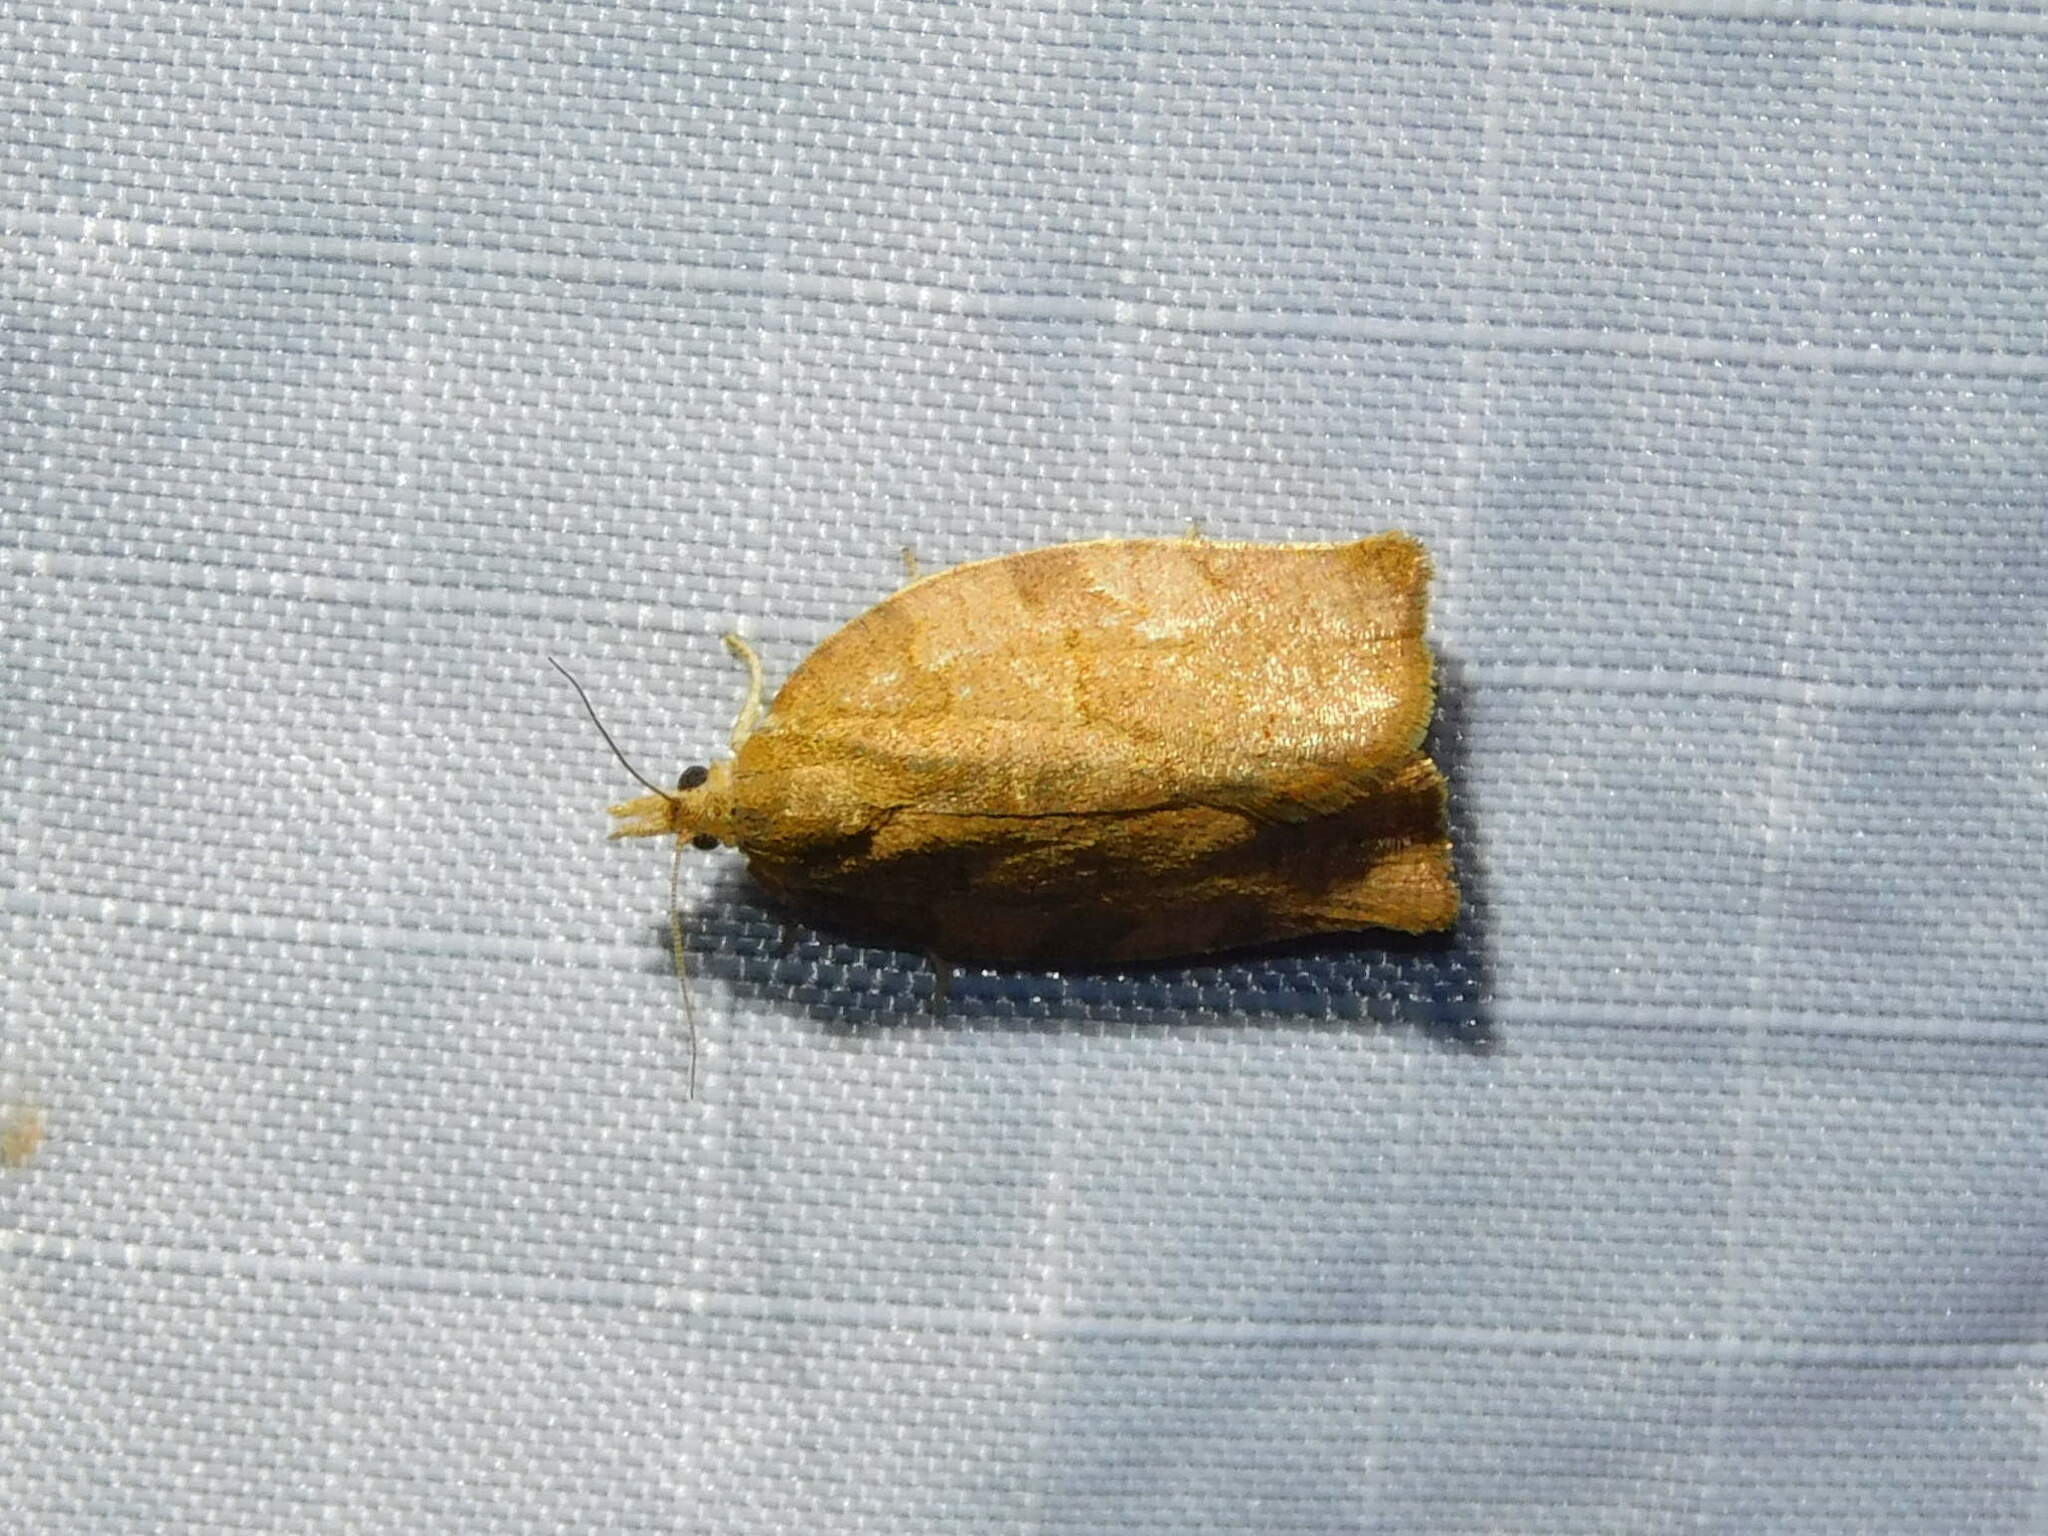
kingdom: Animalia
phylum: Arthropoda
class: Insecta
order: Lepidoptera
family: Tortricidae
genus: Pandemis
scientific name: Pandemis heparana
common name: Dark fruit-tree tortrix
